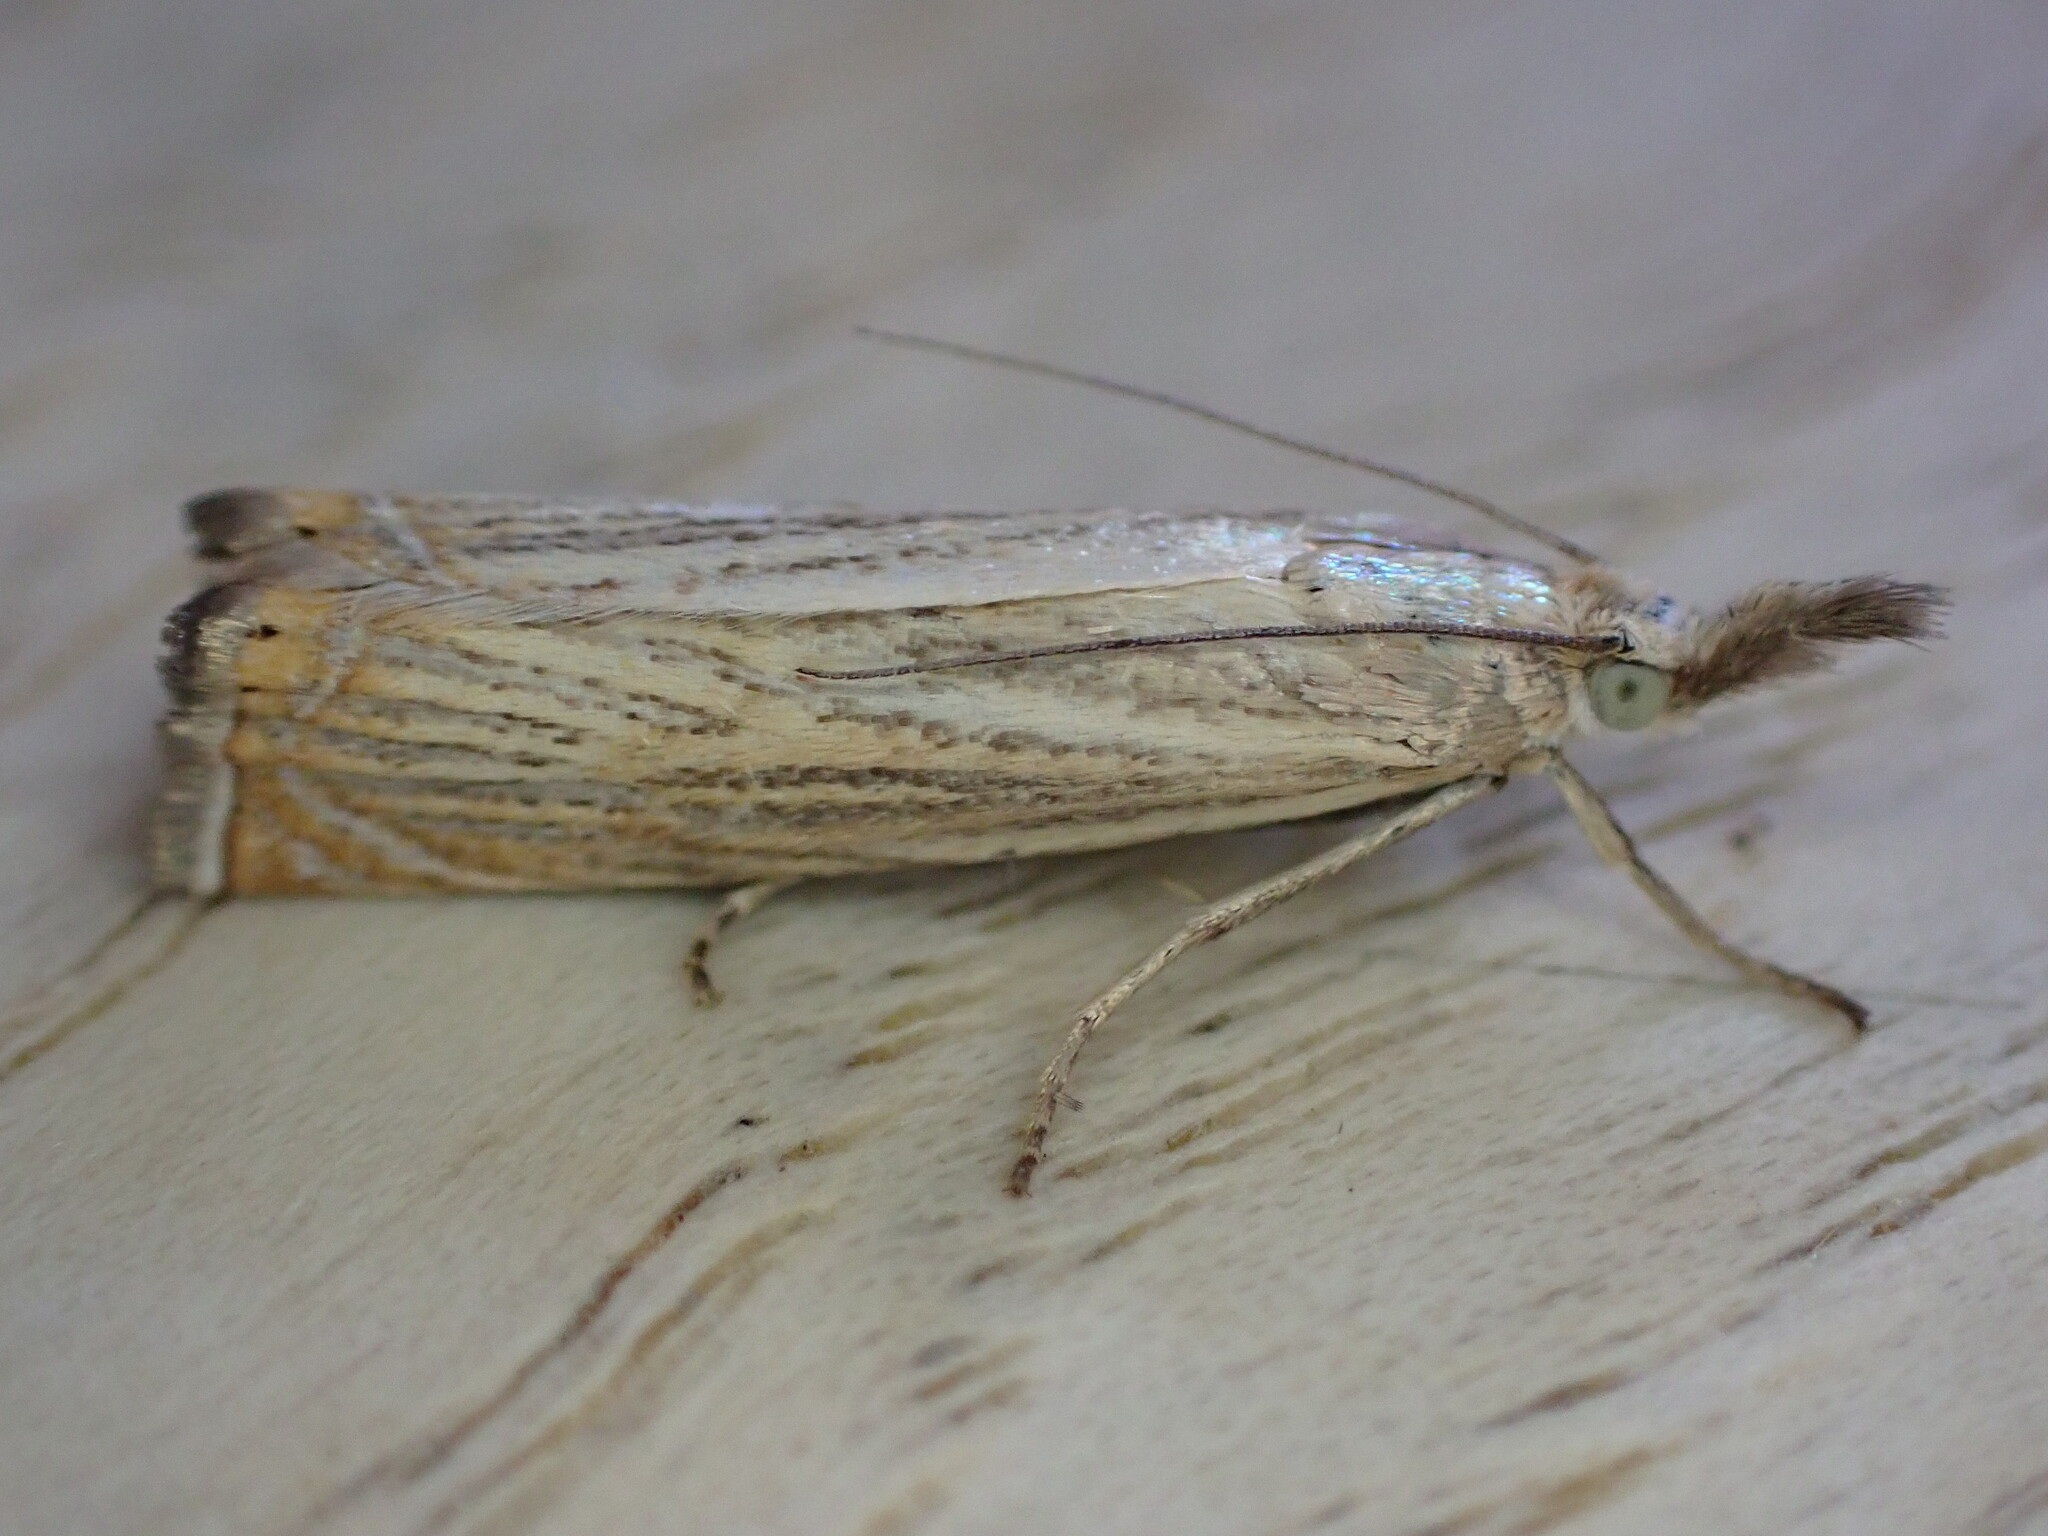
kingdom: Animalia
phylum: Arthropoda
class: Insecta
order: Lepidoptera
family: Crambidae
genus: Chrysoteuchia
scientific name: Chrysoteuchia culmella
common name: Garden grass-veneer
